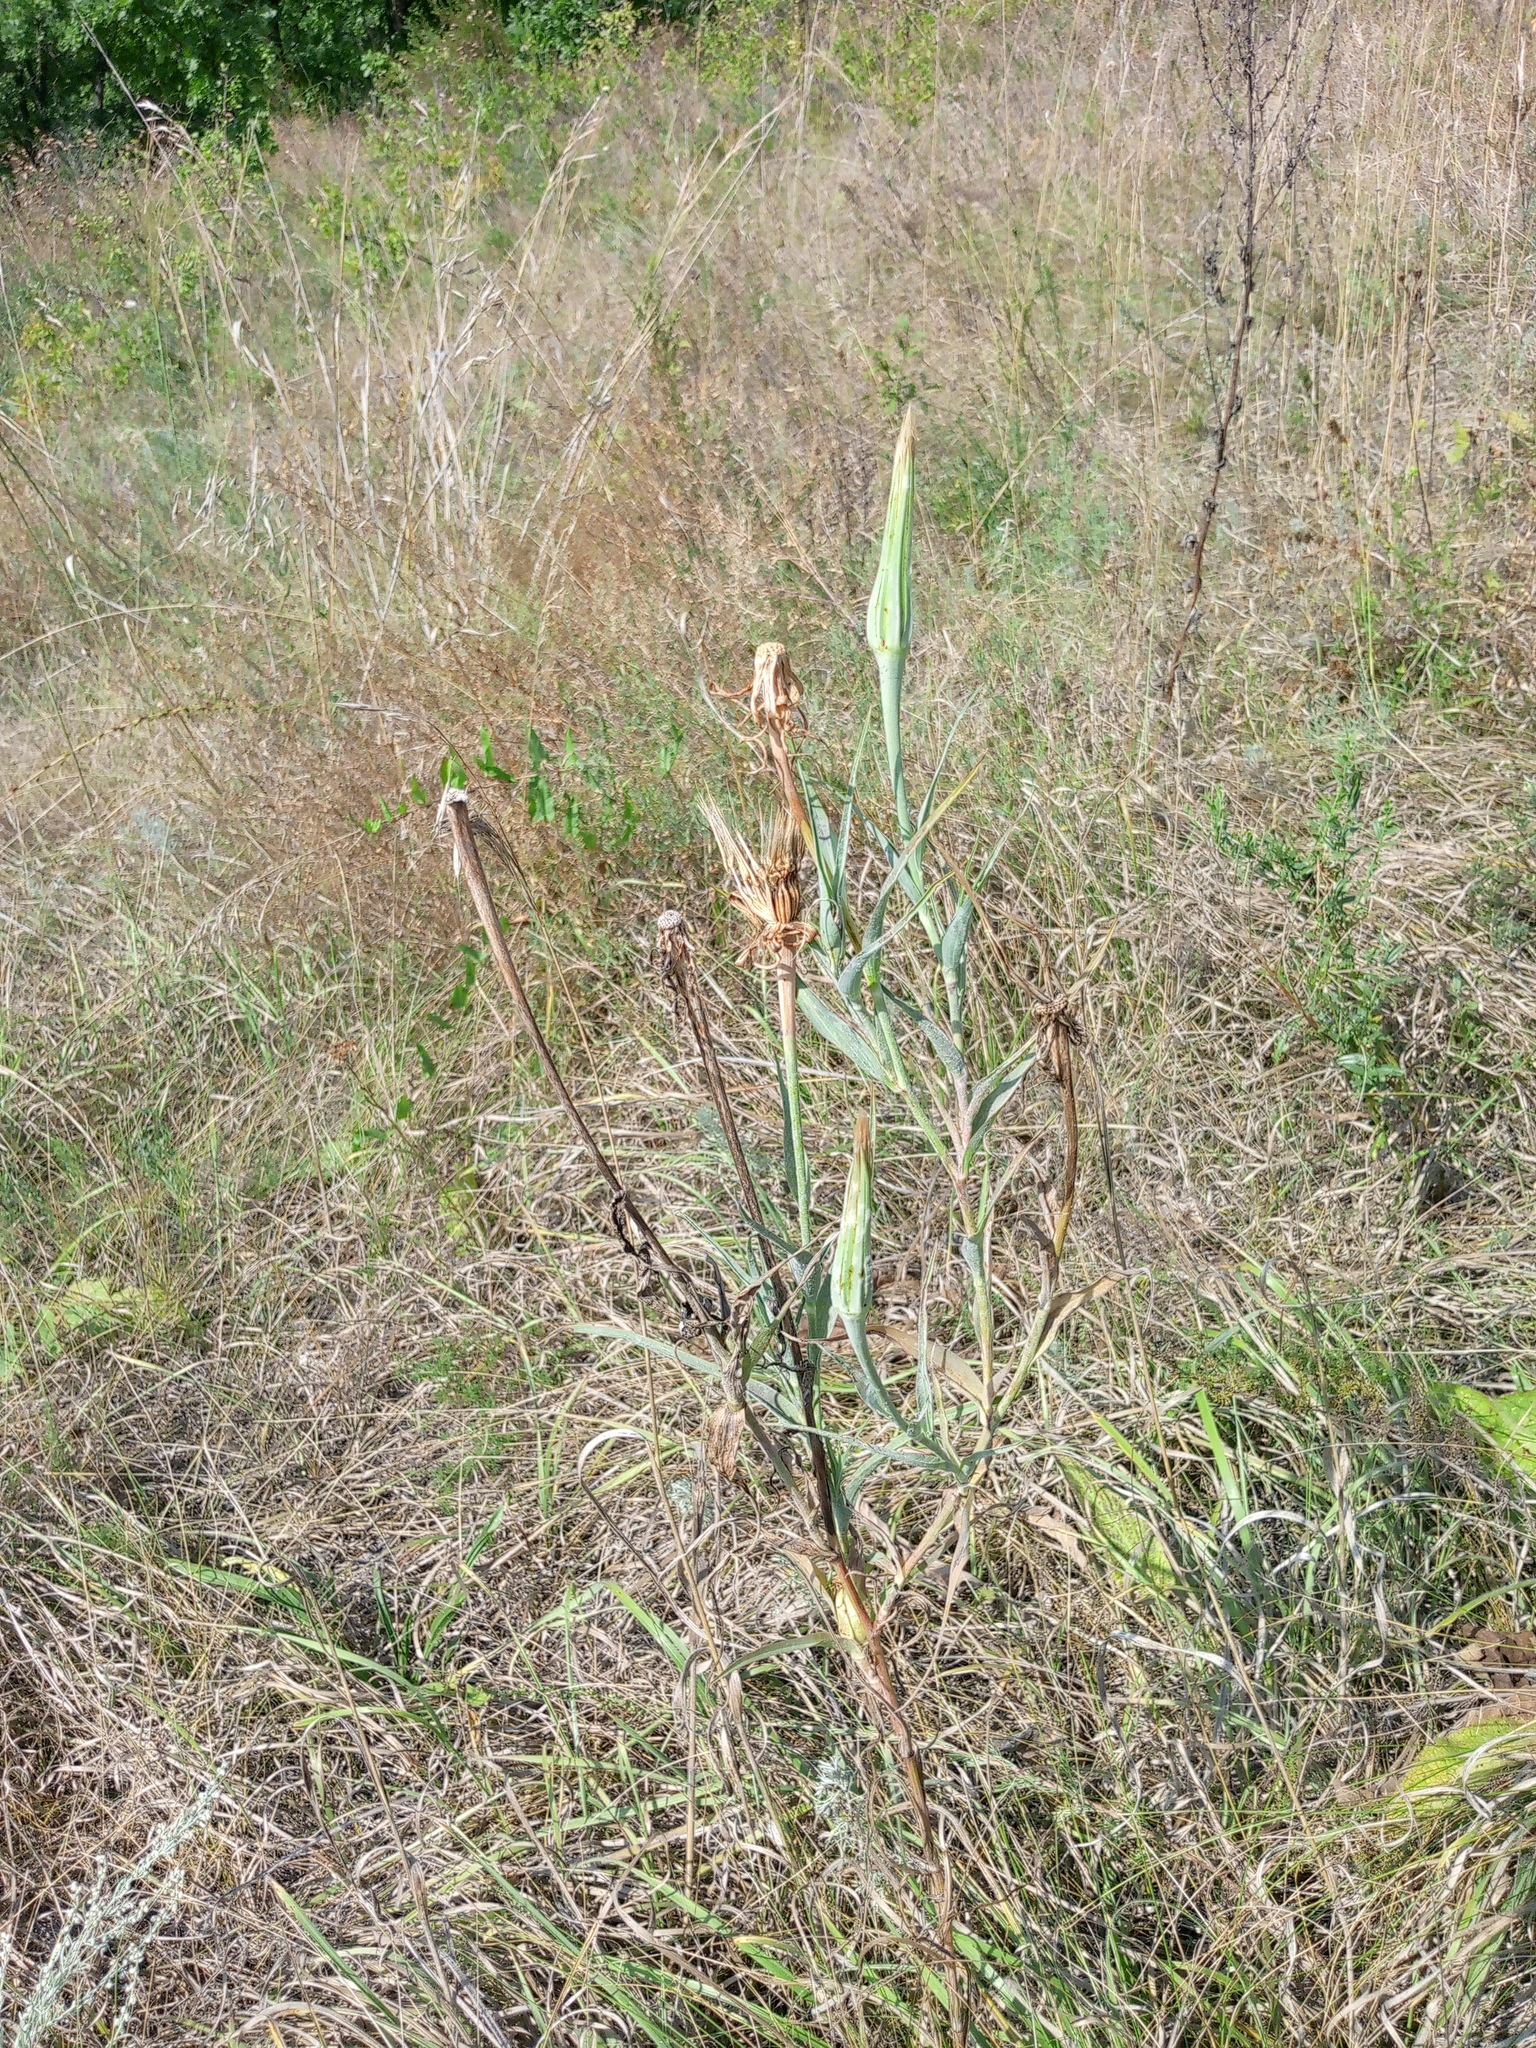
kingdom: Plantae
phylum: Tracheophyta
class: Magnoliopsida
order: Asterales
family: Asteraceae
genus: Tragopogon
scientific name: Tragopogon dubius
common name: Yellow salsify
